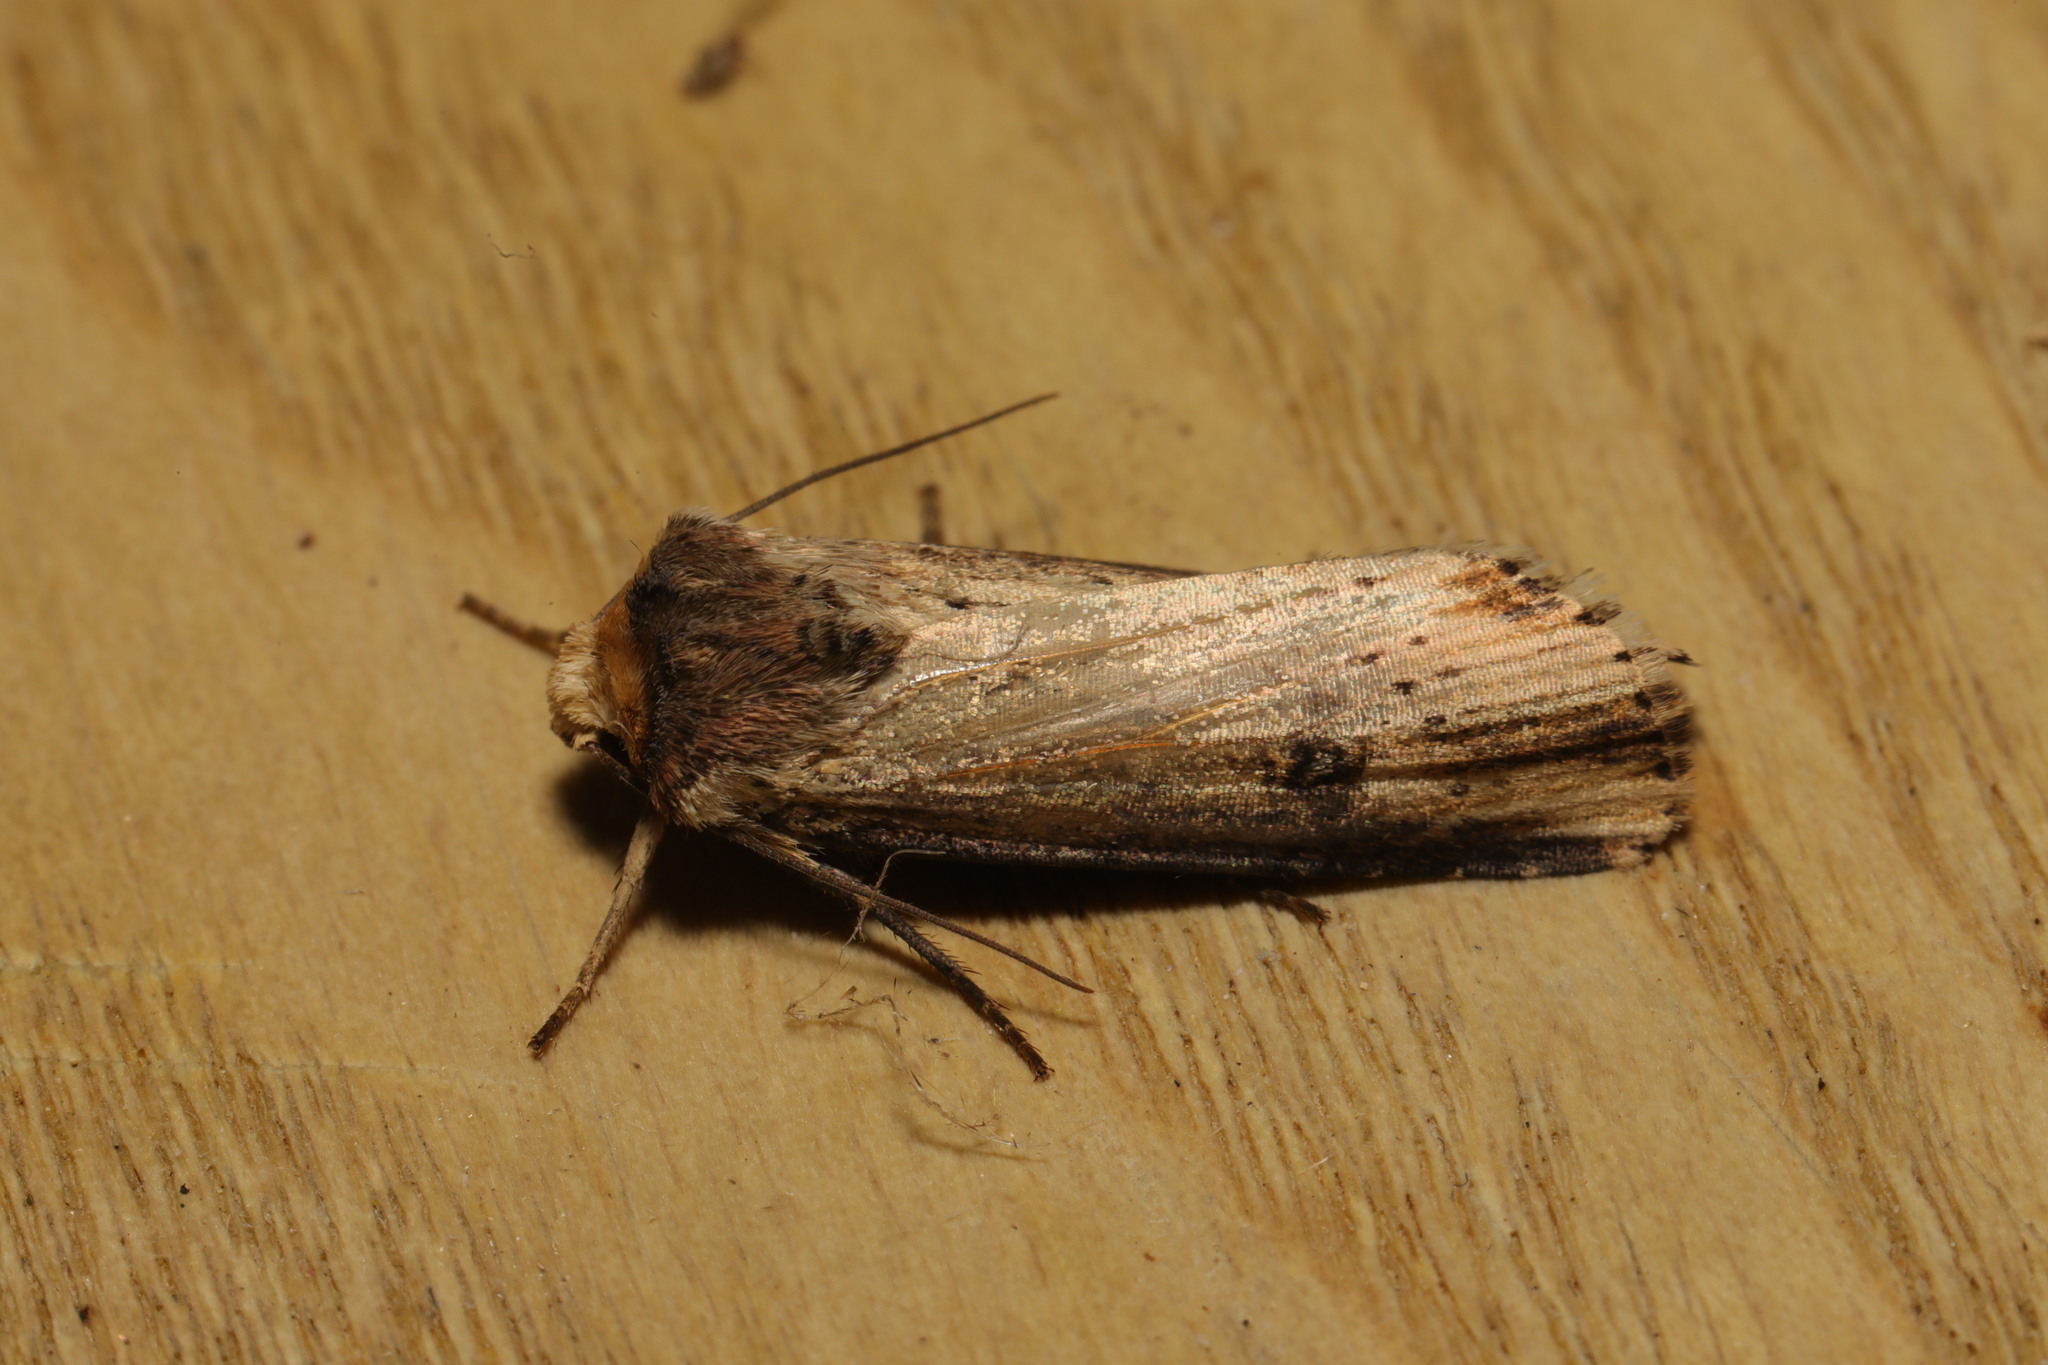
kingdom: Animalia
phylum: Arthropoda
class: Insecta
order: Lepidoptera
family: Noctuidae
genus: Axylia
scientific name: Axylia putris
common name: Flame
